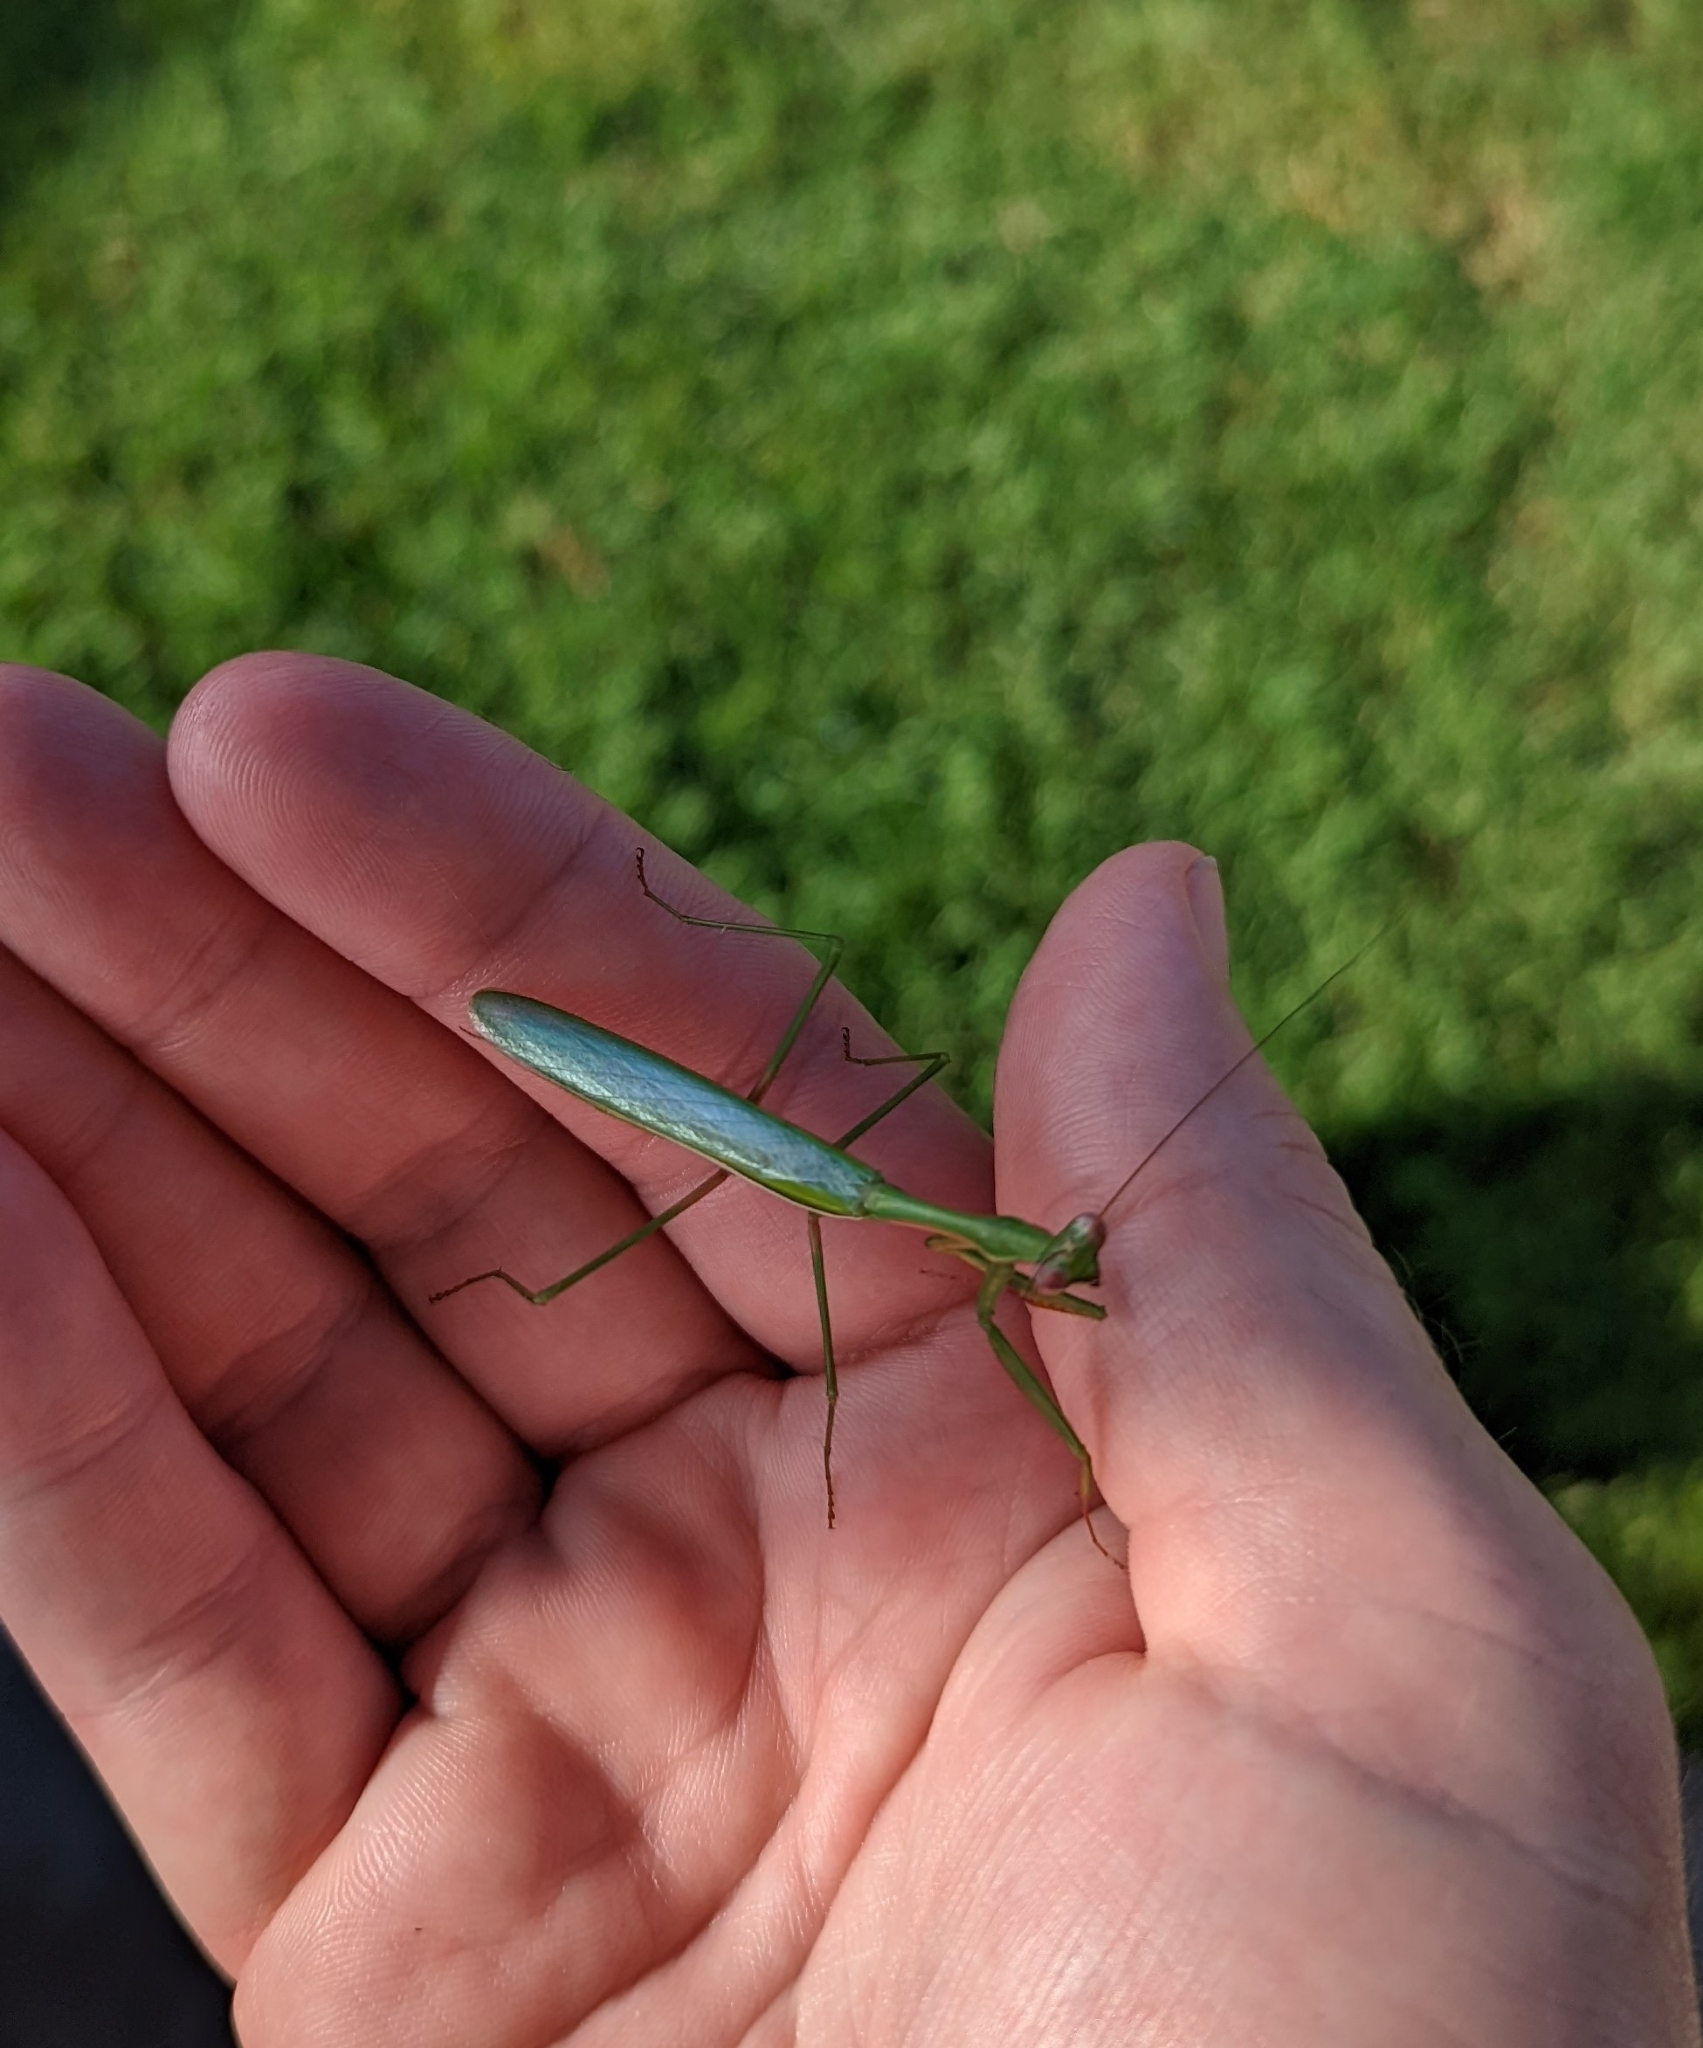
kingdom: Animalia
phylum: Arthropoda
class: Insecta
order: Mantodea
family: Mantidae
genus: Pseudomantis
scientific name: Pseudomantis albofimbriata
